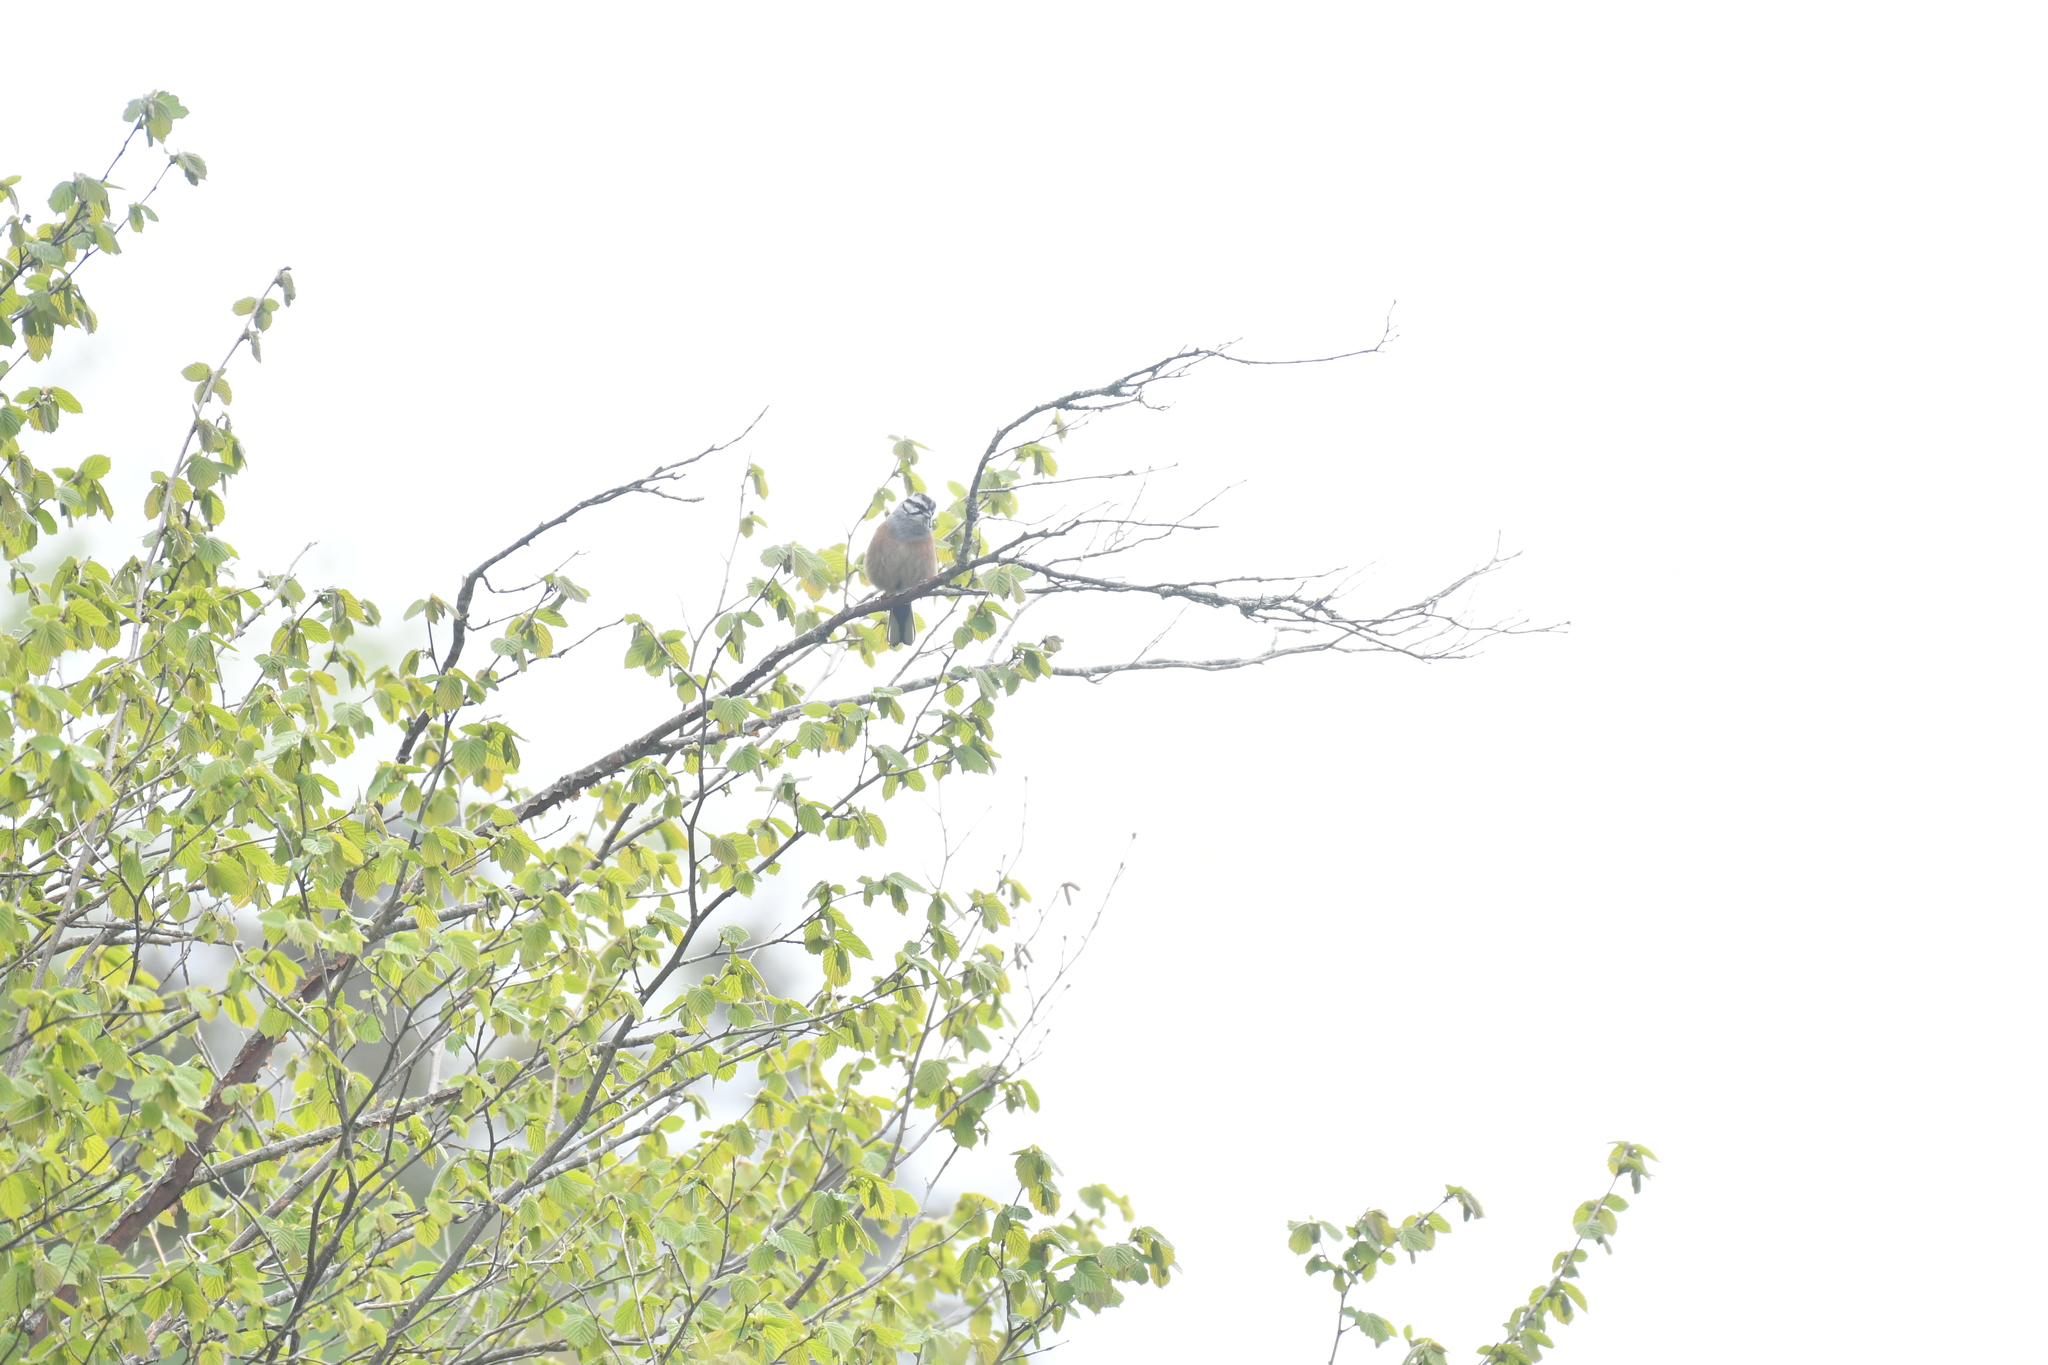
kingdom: Animalia
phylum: Chordata
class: Aves
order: Passeriformes
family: Emberizidae
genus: Emberiza
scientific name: Emberiza cia
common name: Rock bunting
